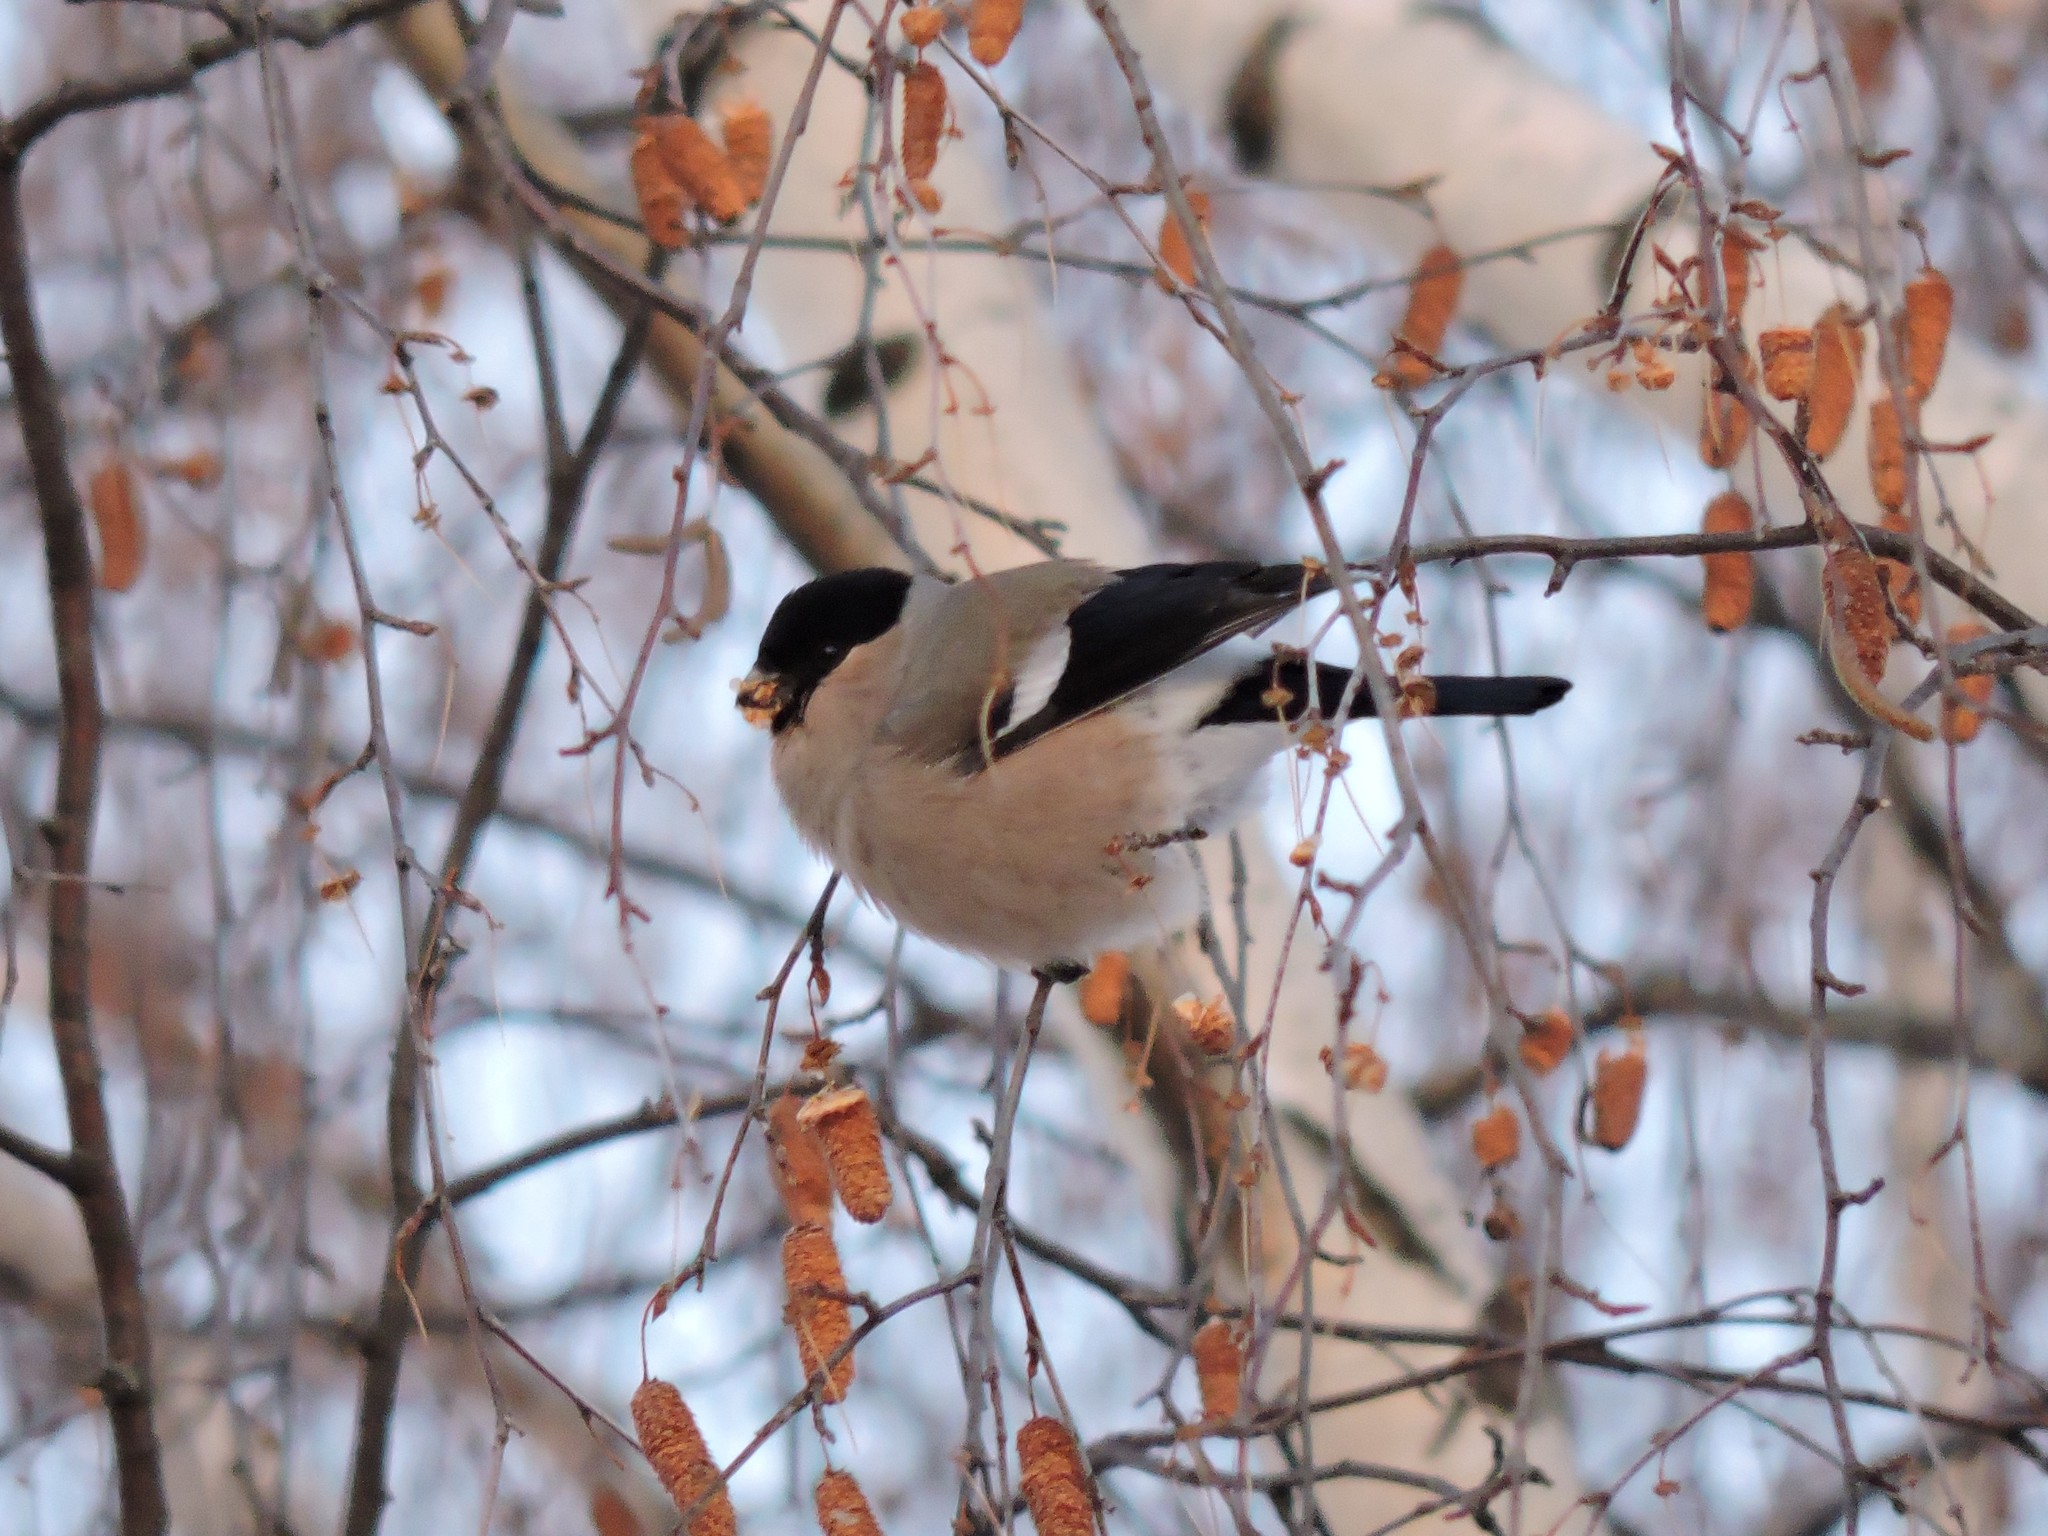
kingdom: Animalia
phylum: Chordata
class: Aves
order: Passeriformes
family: Fringillidae
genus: Pyrrhula
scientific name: Pyrrhula pyrrhula
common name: Eurasian bullfinch
